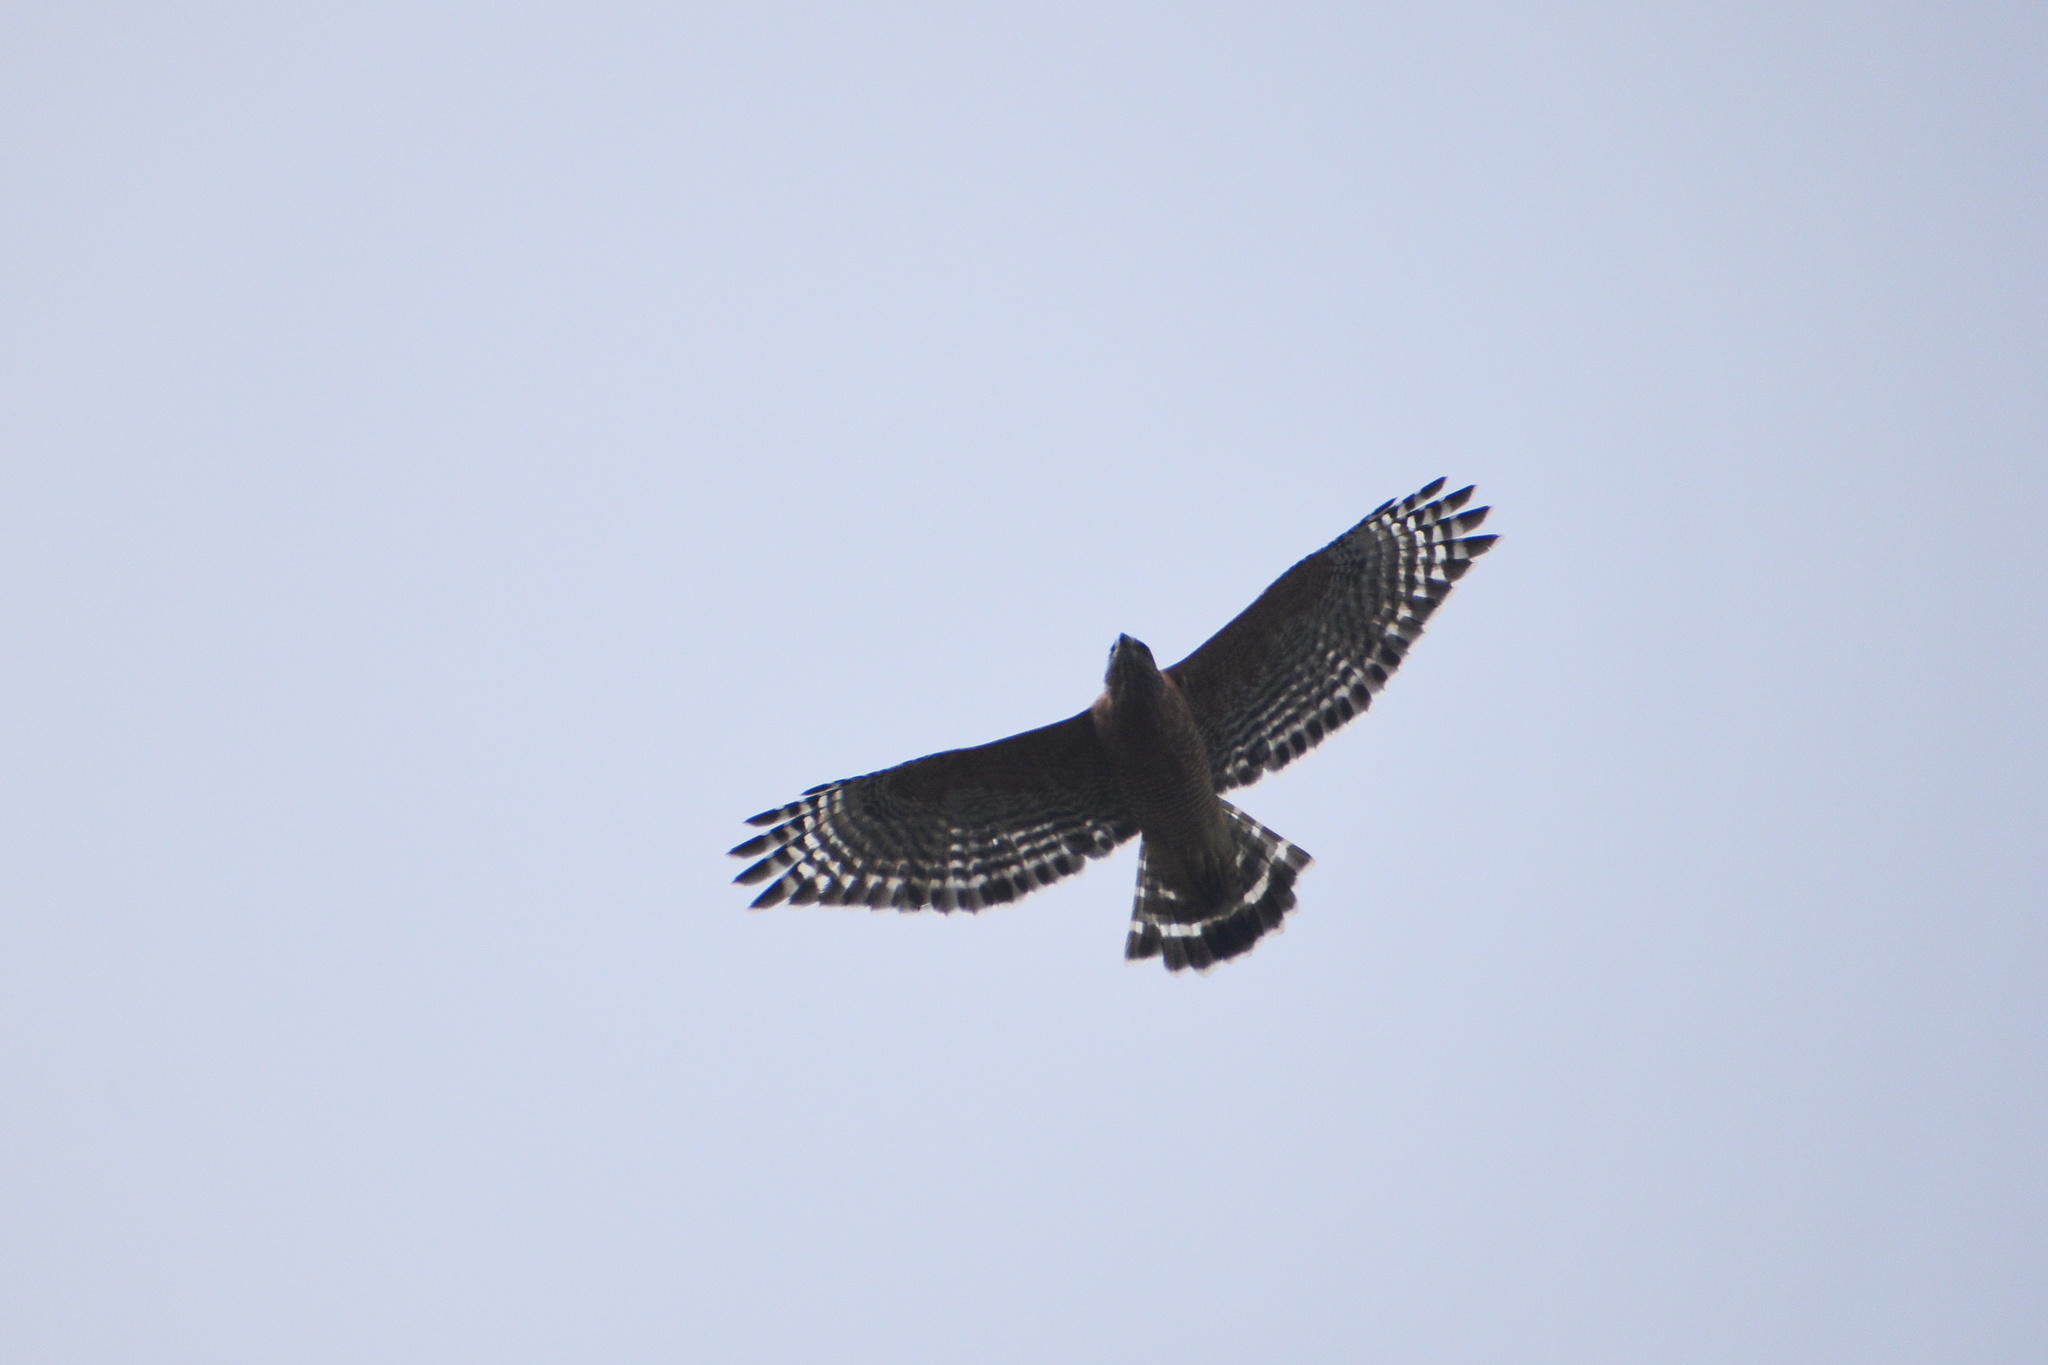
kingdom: Animalia
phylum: Chordata
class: Aves
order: Accipitriformes
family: Accipitridae
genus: Buteo
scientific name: Buteo lineatus
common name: Red-shouldered hawk
